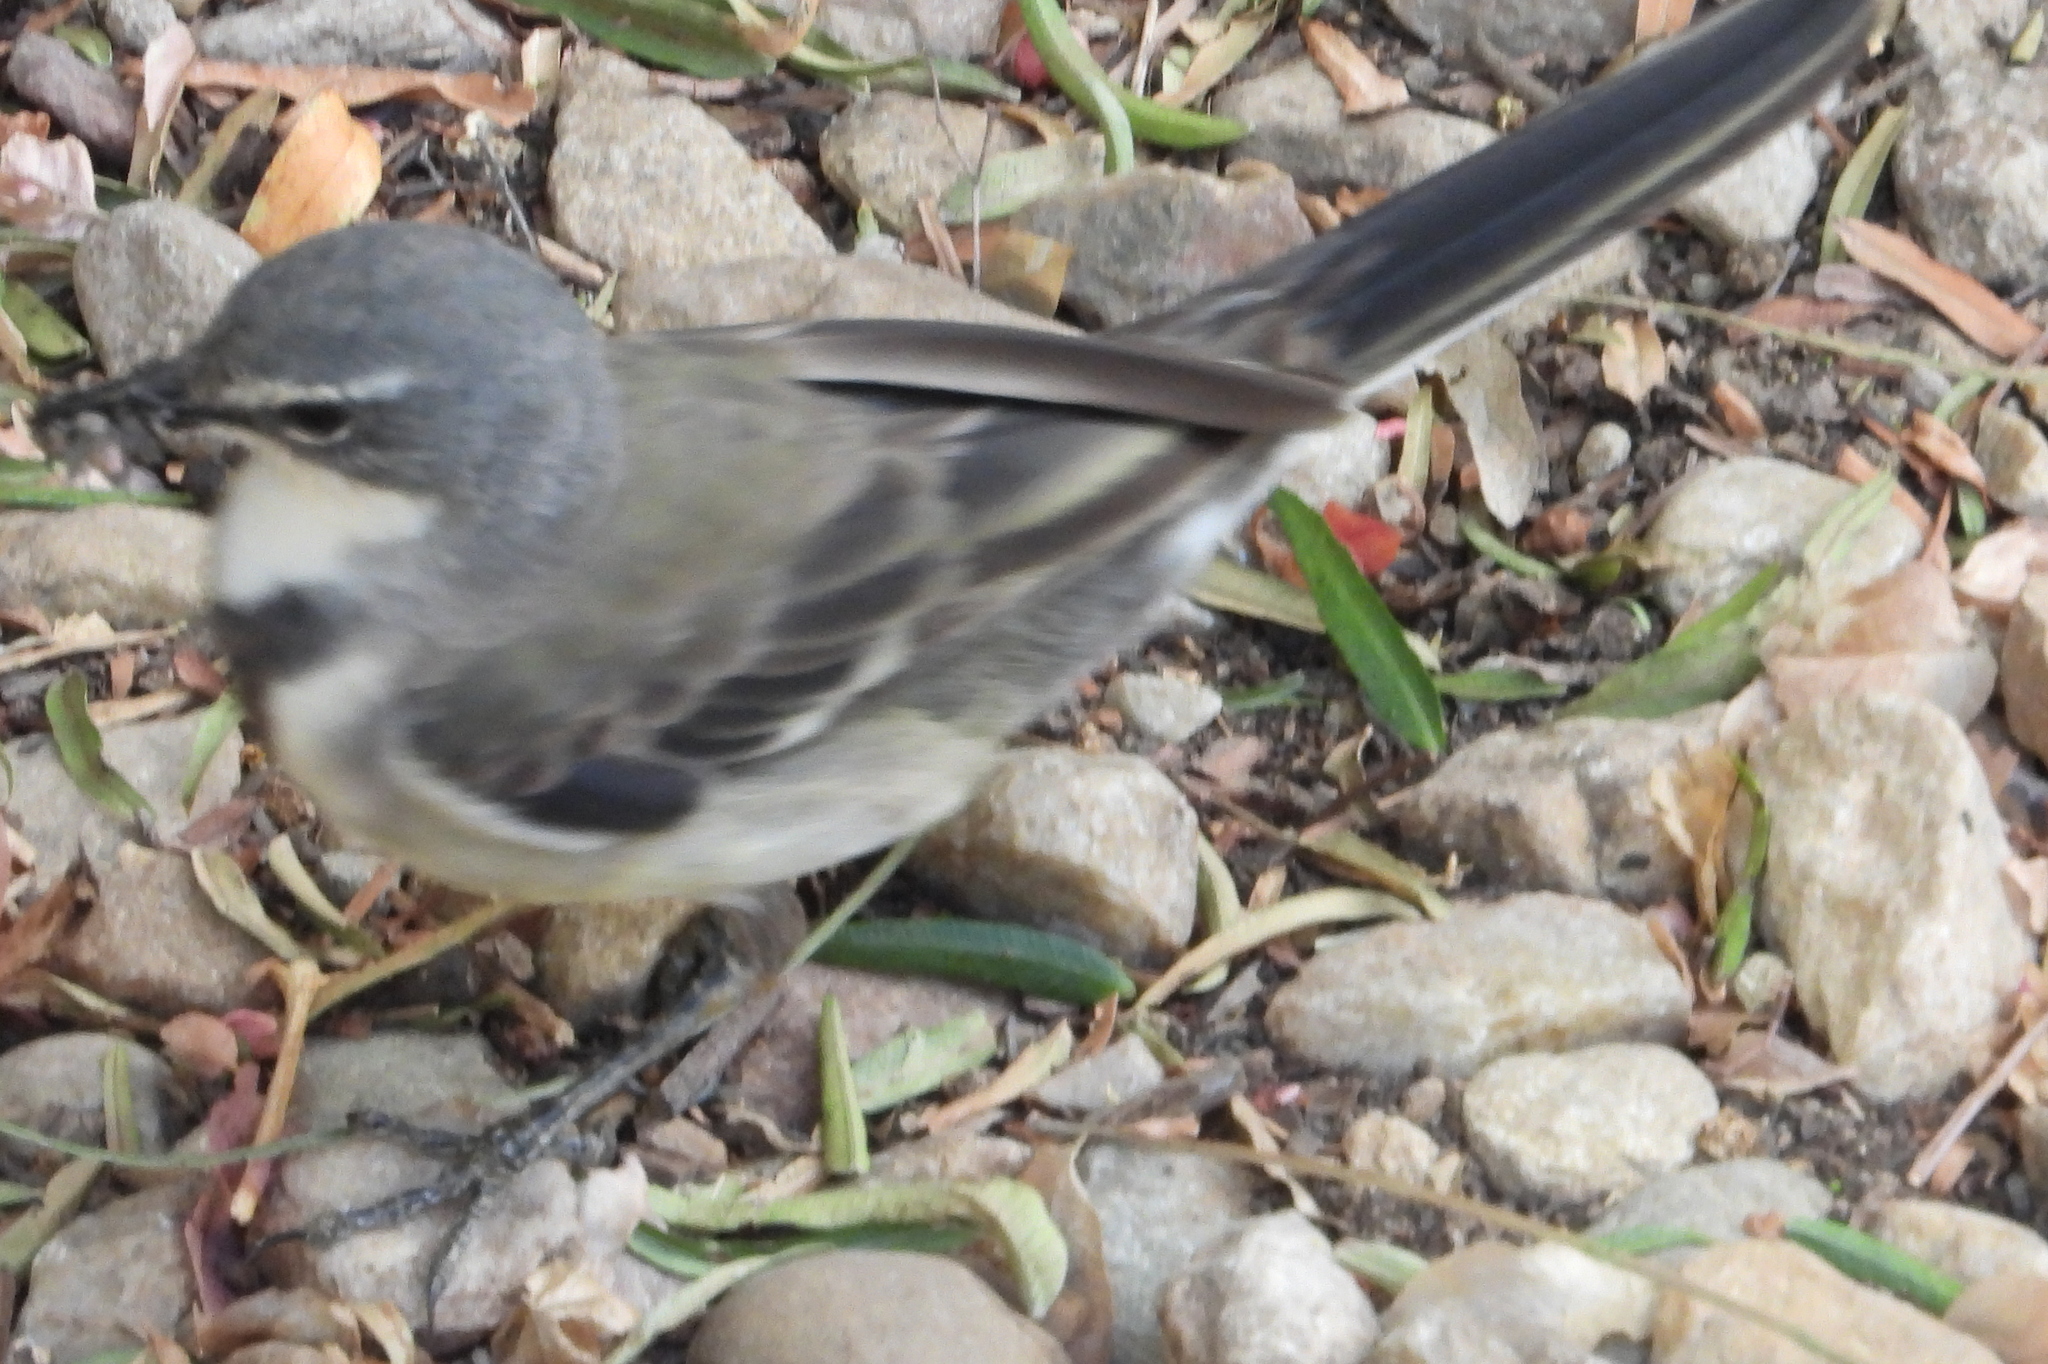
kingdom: Animalia
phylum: Chordata
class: Aves
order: Passeriformes
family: Motacillidae
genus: Motacilla
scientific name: Motacilla capensis
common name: Cape wagtail
